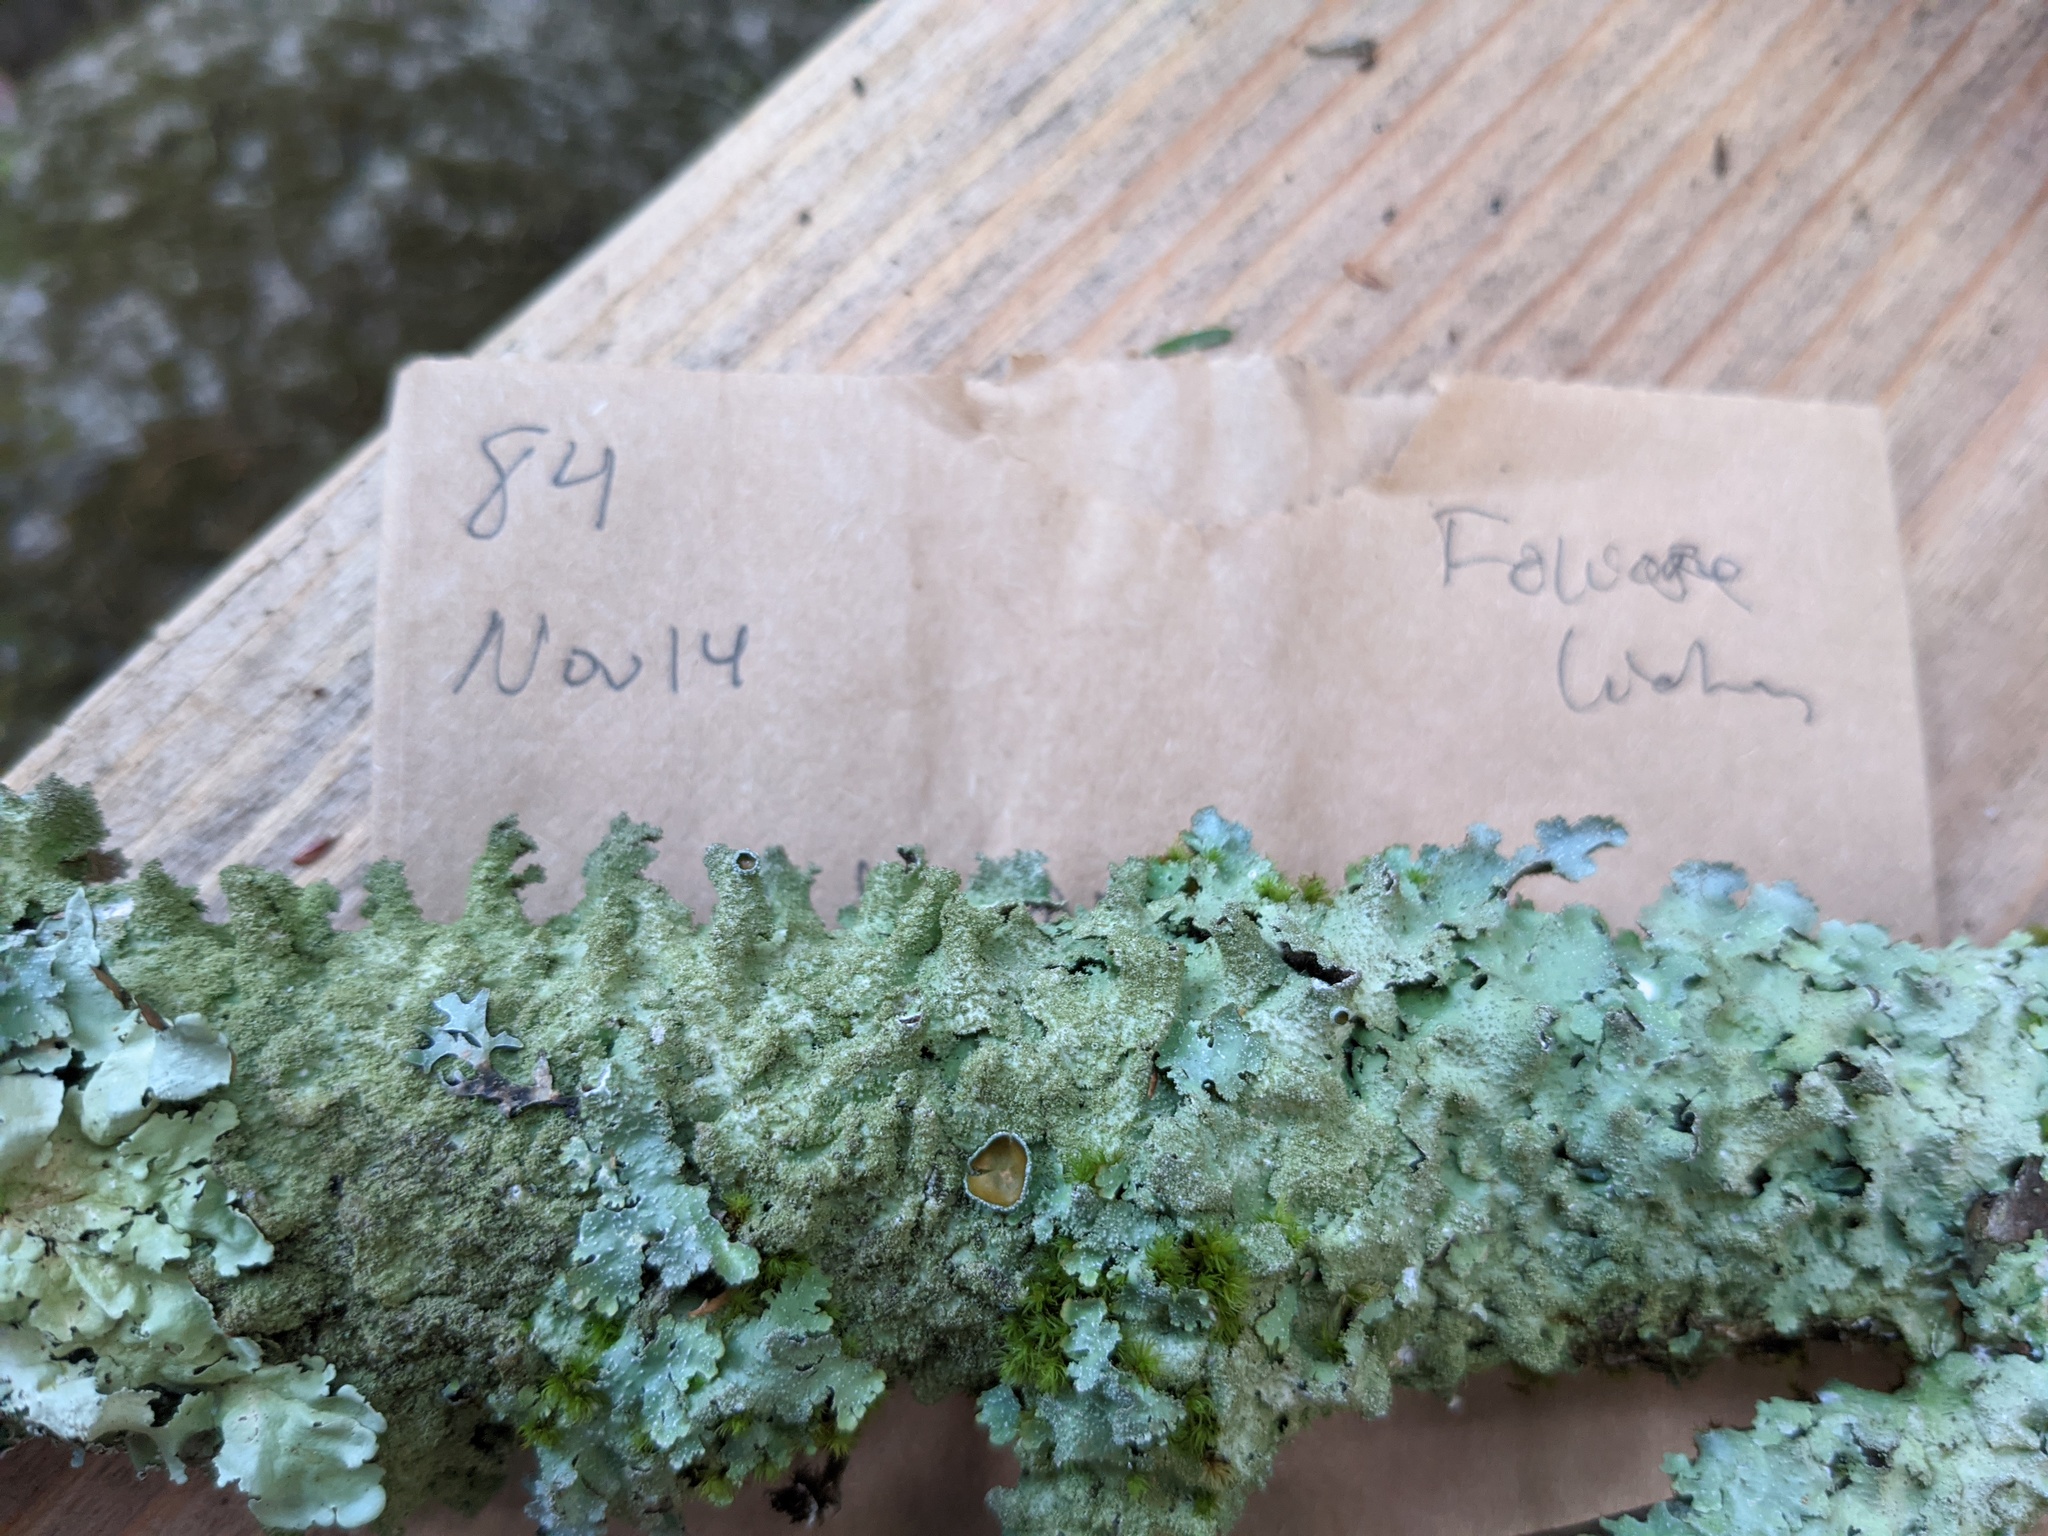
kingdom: Fungi
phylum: Ascomycota
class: Lecanoromycetes
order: Lecanorales
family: Parmeliaceae
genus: Punctelia
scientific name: Punctelia rudecta
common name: Rough speckled shield lichen
